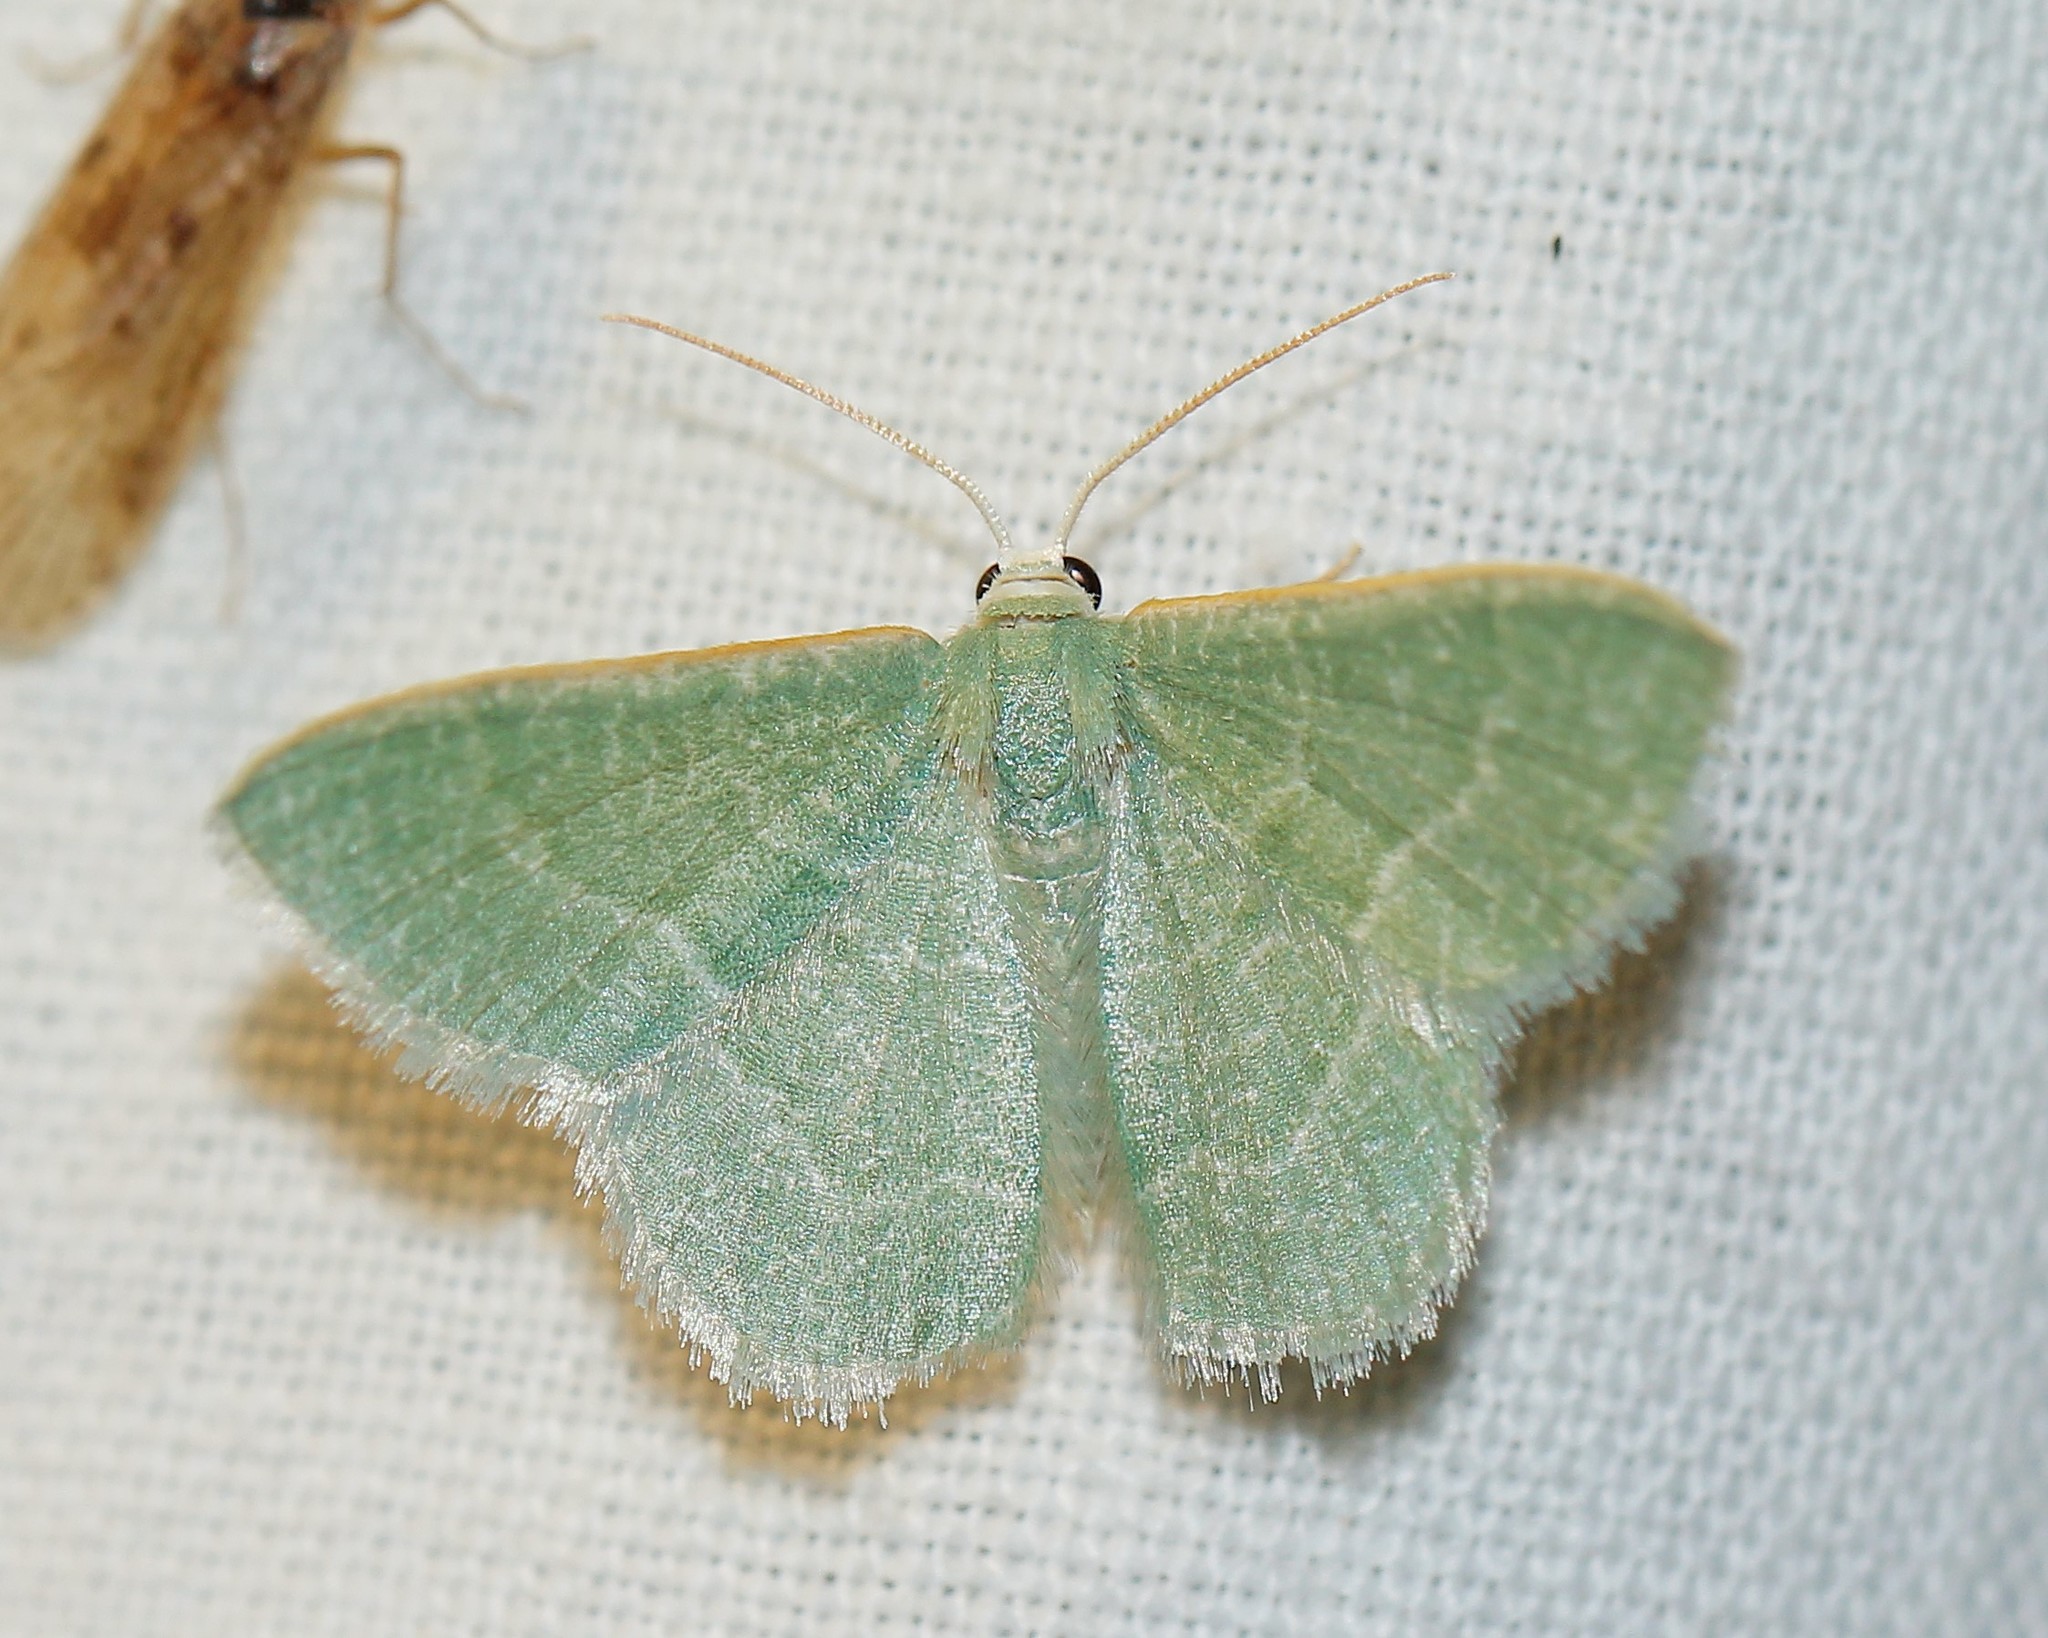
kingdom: Animalia
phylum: Arthropoda
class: Insecta
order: Lepidoptera
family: Geometridae
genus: Chlorissa
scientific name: Chlorissa etruscaria
